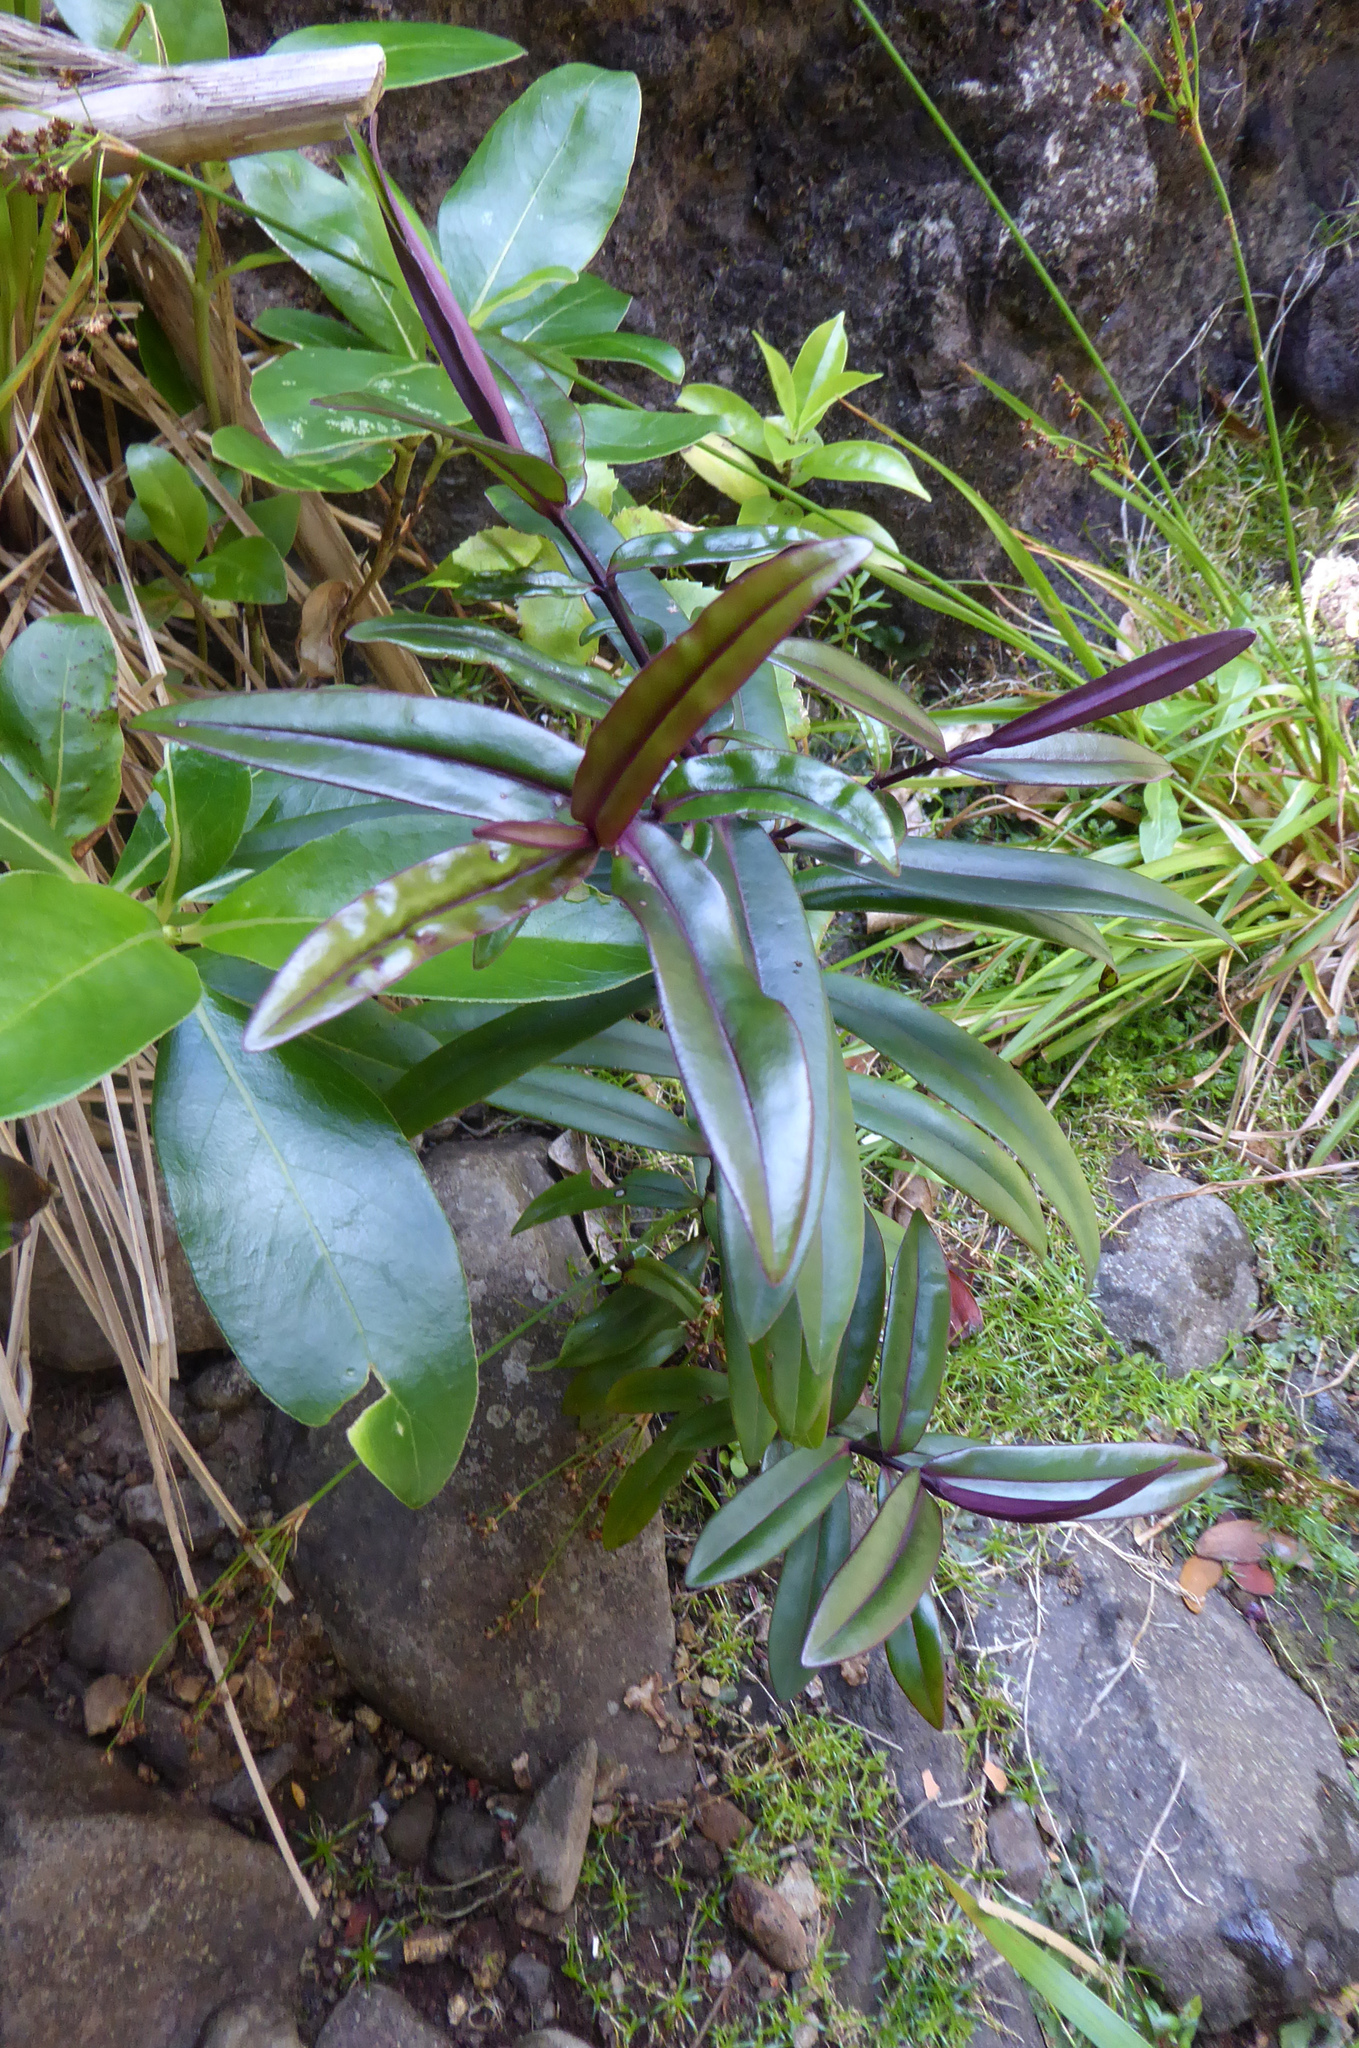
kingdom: Plantae
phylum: Tracheophyta
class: Magnoliopsida
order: Lamiales
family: Plantaginaceae
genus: Veronica
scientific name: Veronica bishopiana
